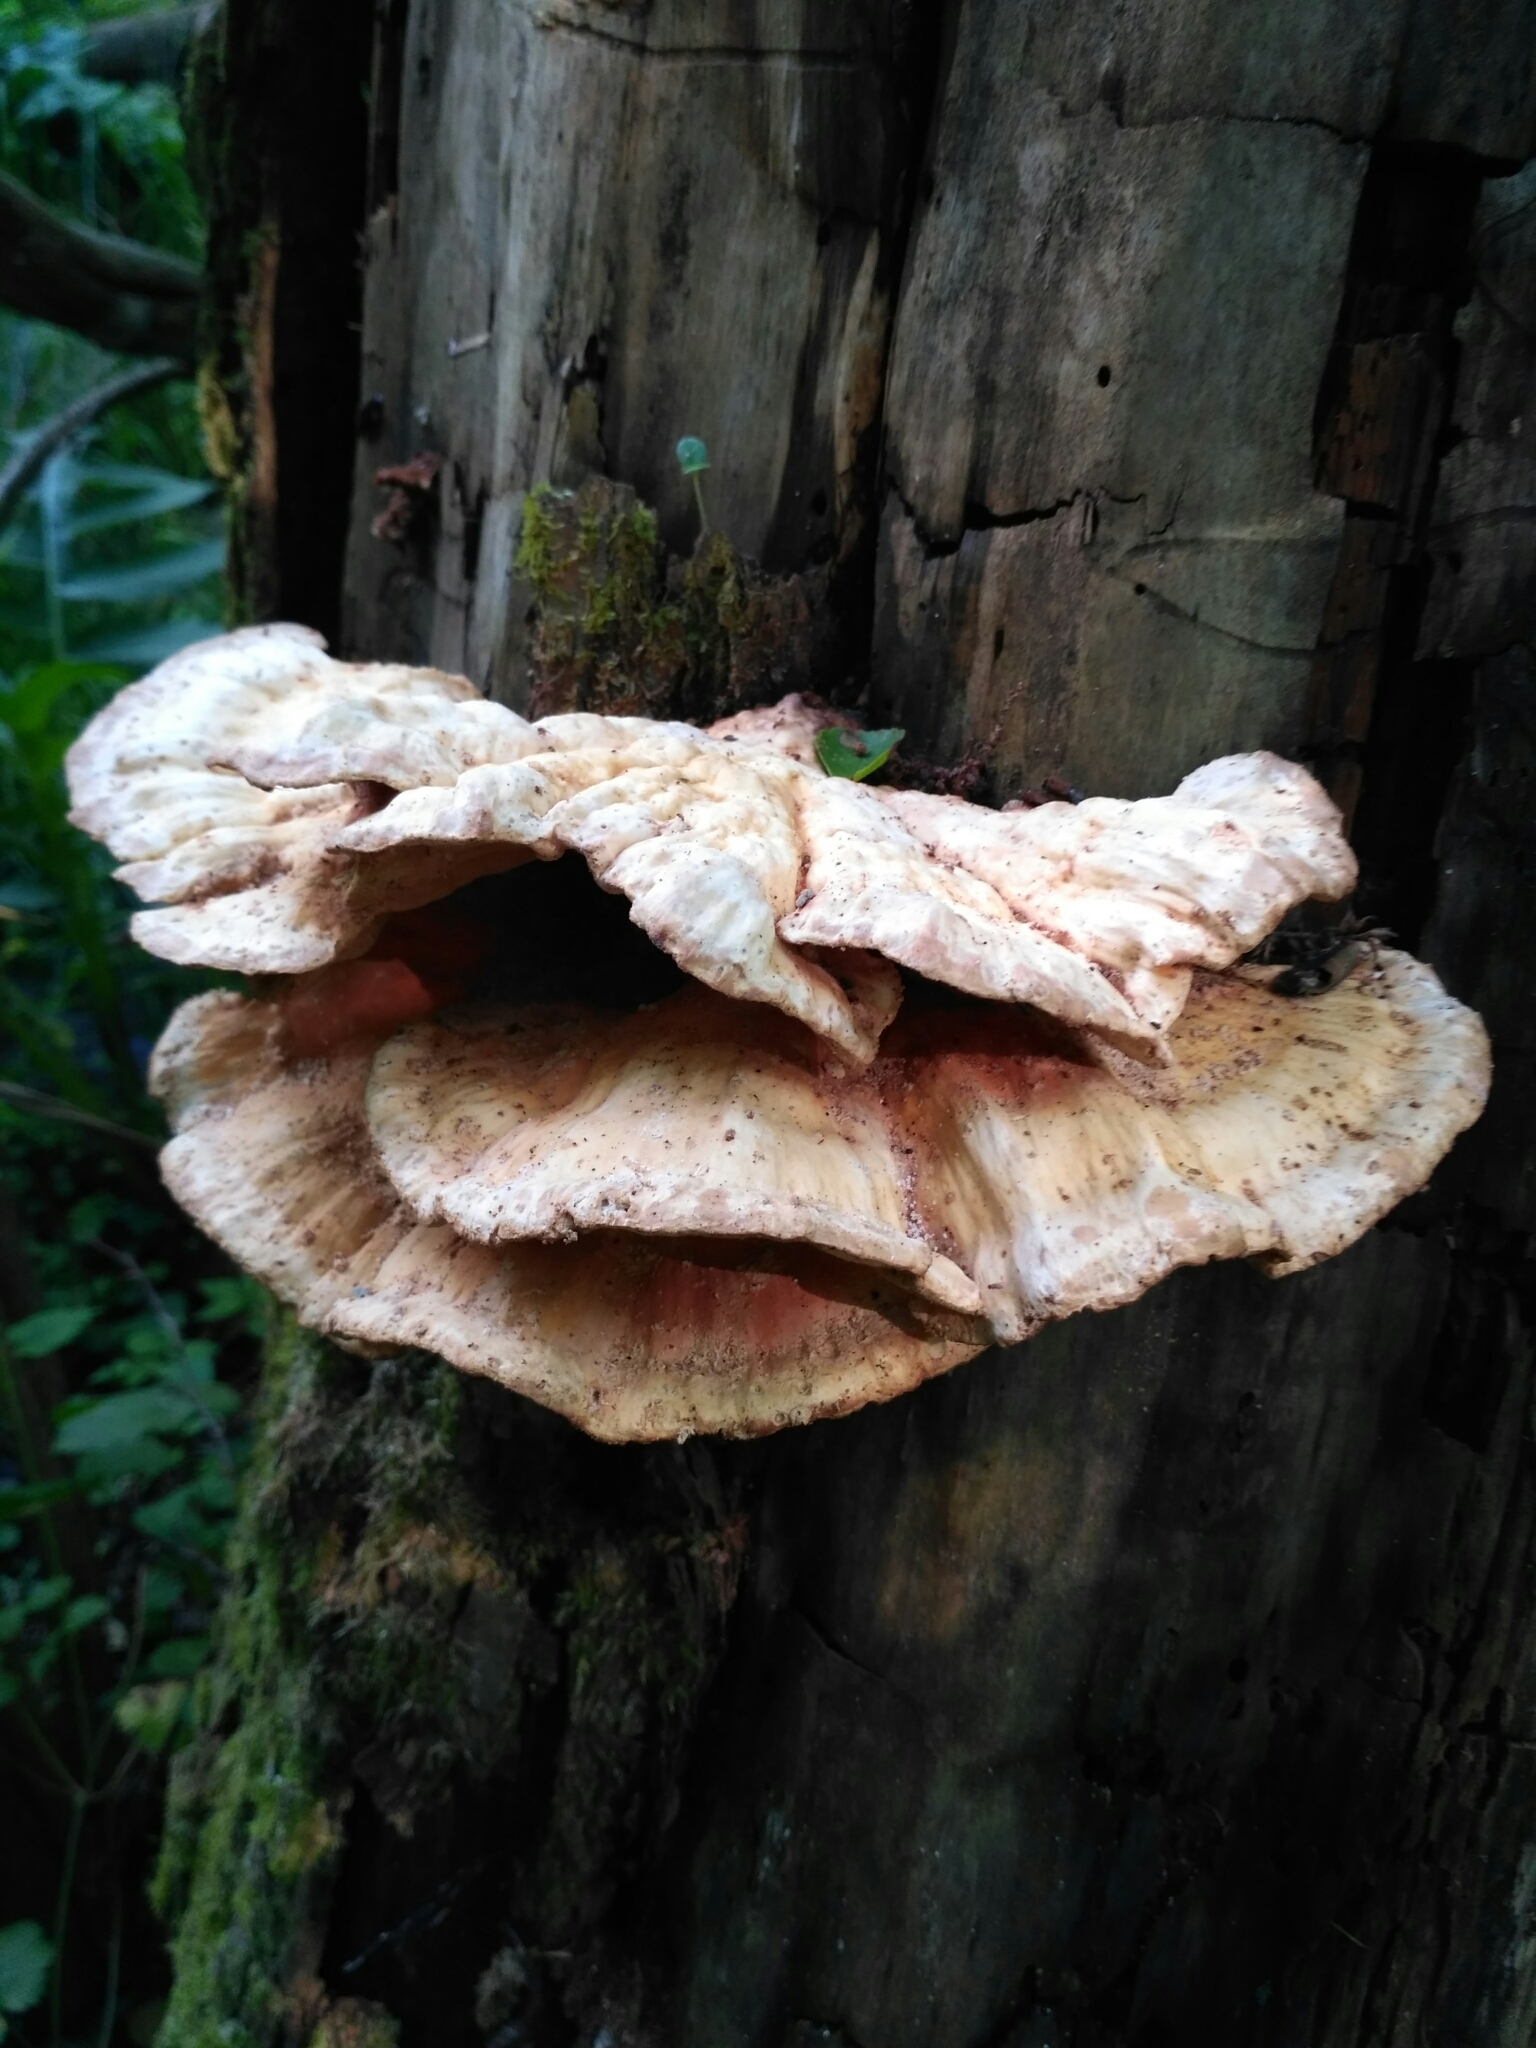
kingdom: Fungi
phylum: Basidiomycota
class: Agaricomycetes
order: Polyporales
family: Laetiporaceae
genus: Laetiporus
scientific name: Laetiporus sulphureus
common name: Chicken of the woods
